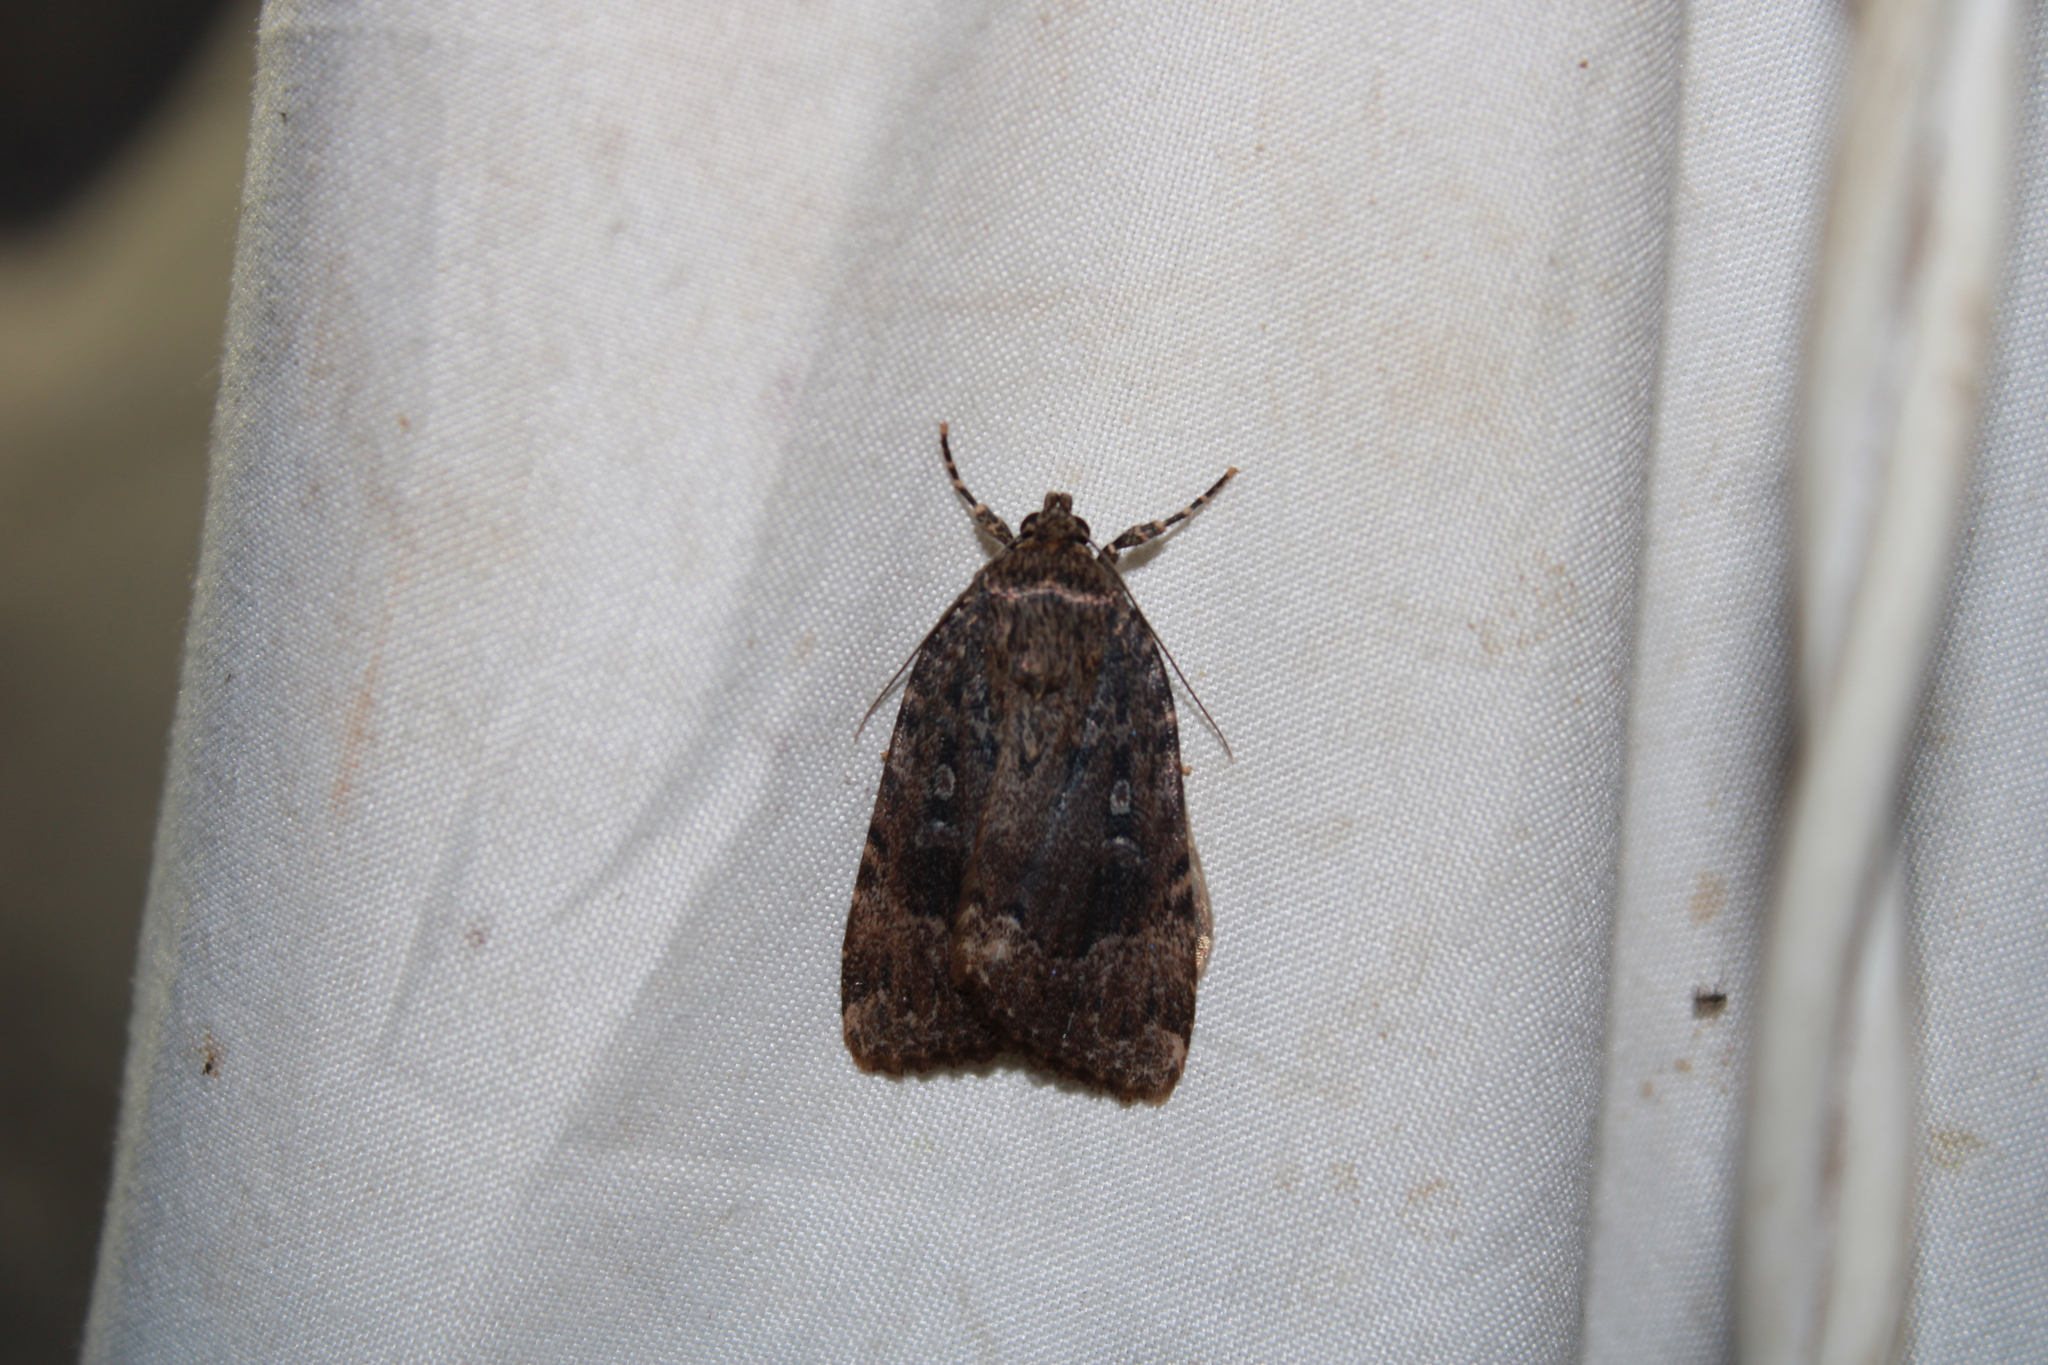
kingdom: Animalia
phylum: Arthropoda
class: Insecta
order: Lepidoptera
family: Noctuidae
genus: Amphipyra
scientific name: Amphipyra pyramidoides
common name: American copper underwing
